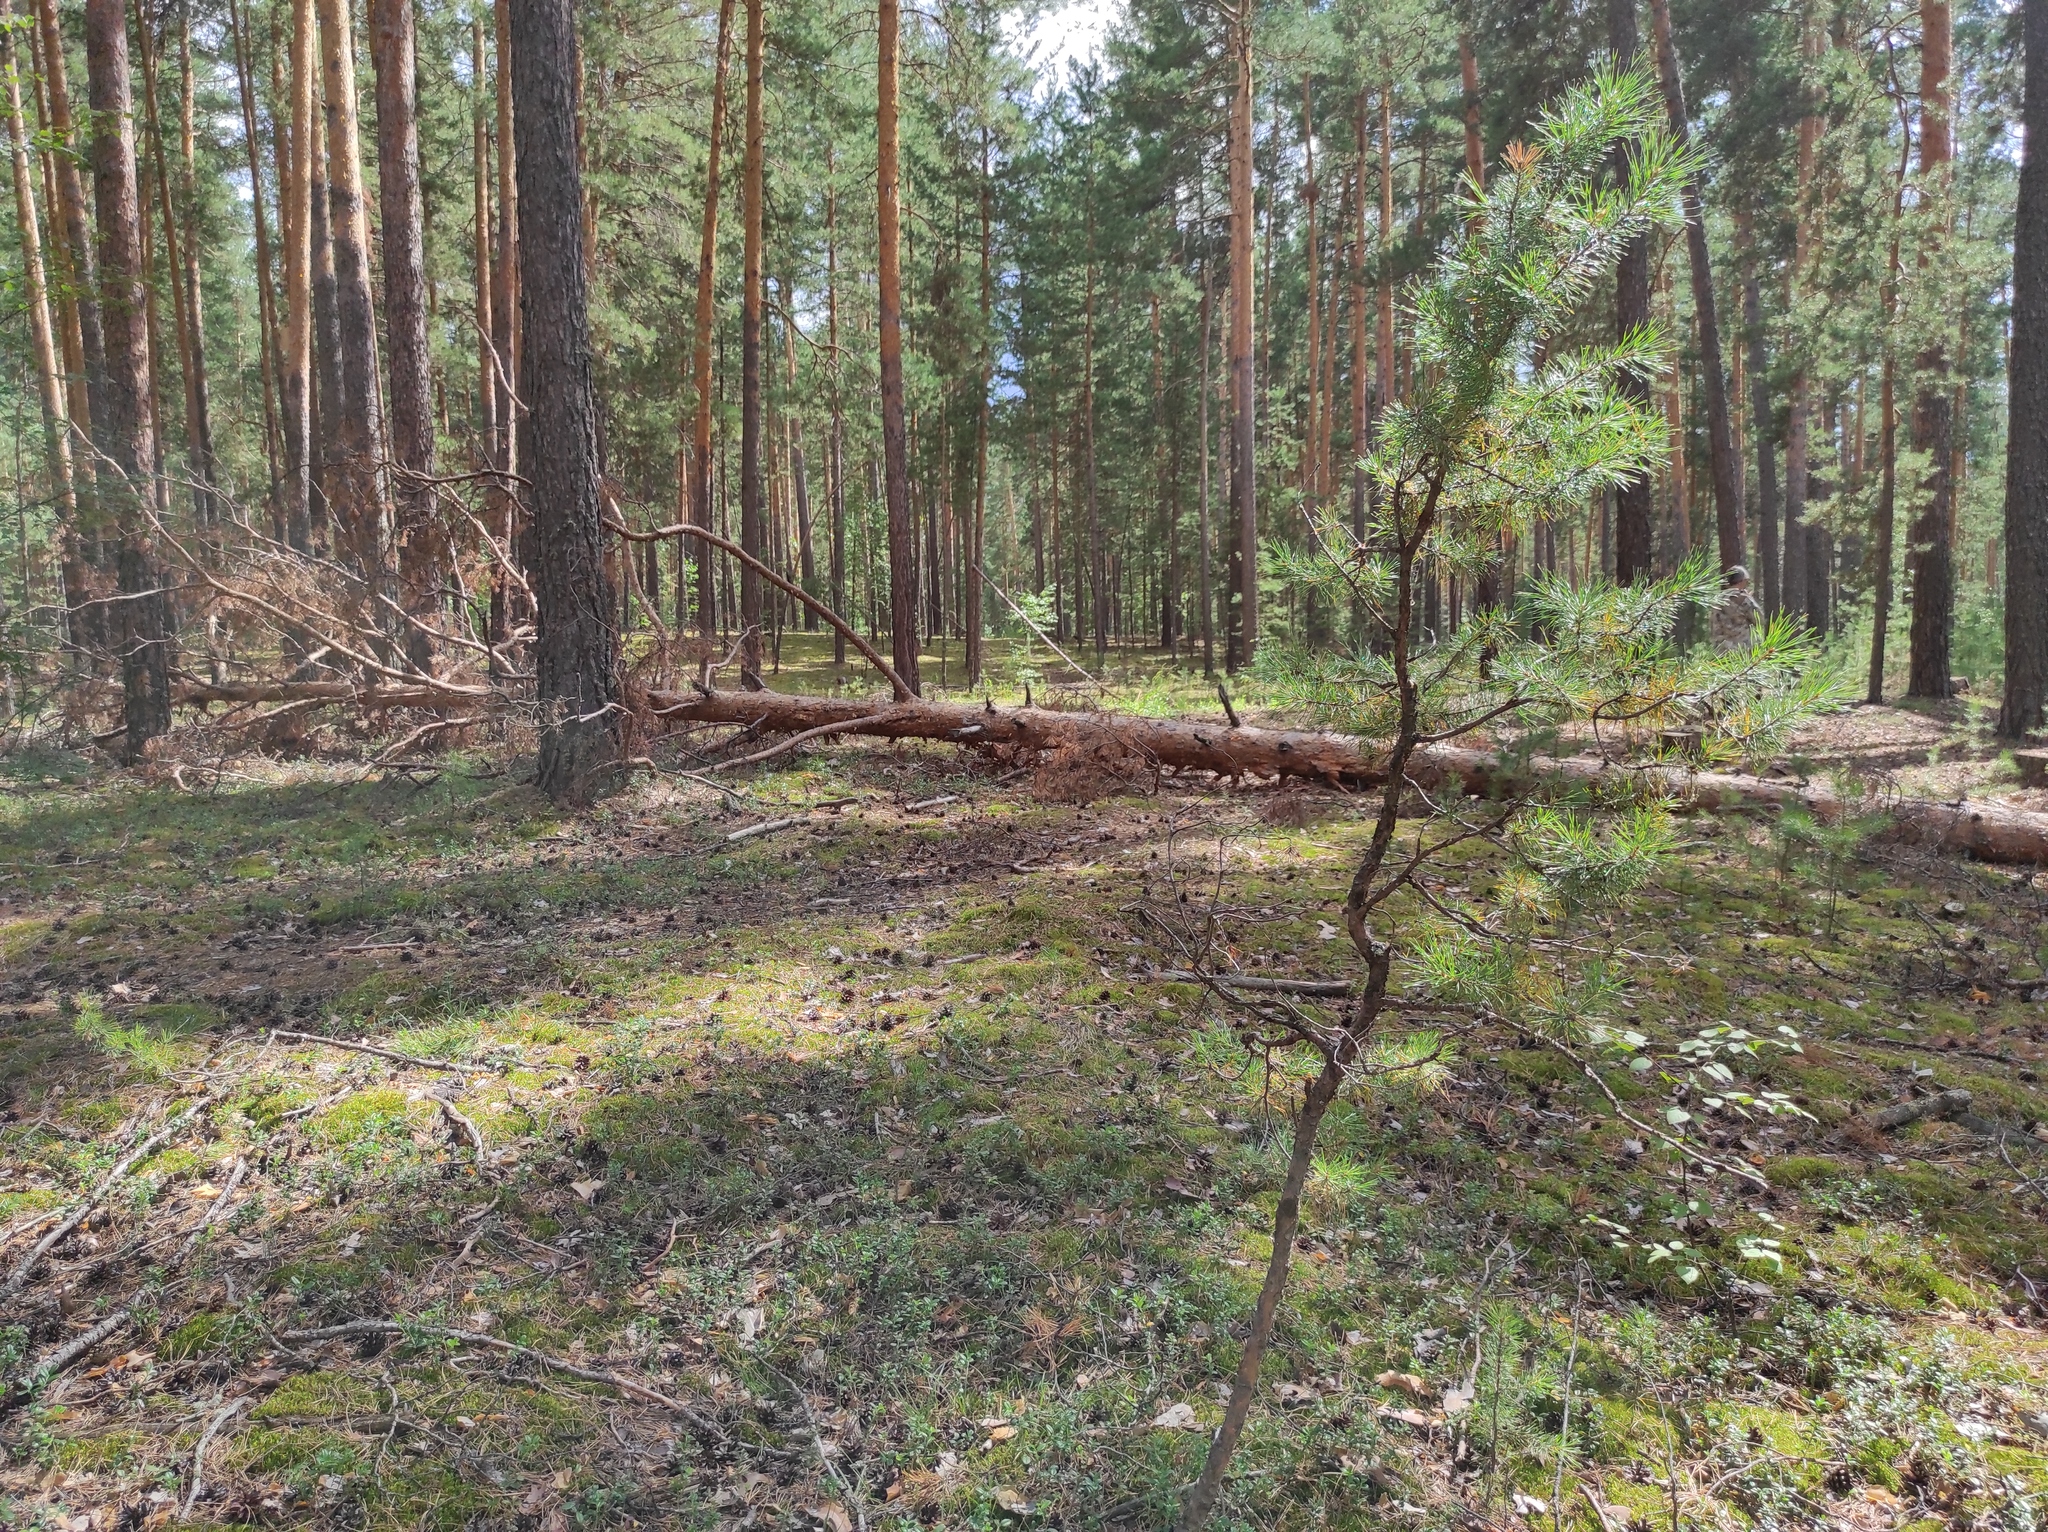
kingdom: Plantae
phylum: Tracheophyta
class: Pinopsida
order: Pinales
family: Pinaceae
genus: Pinus
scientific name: Pinus sylvestris
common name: Scots pine
